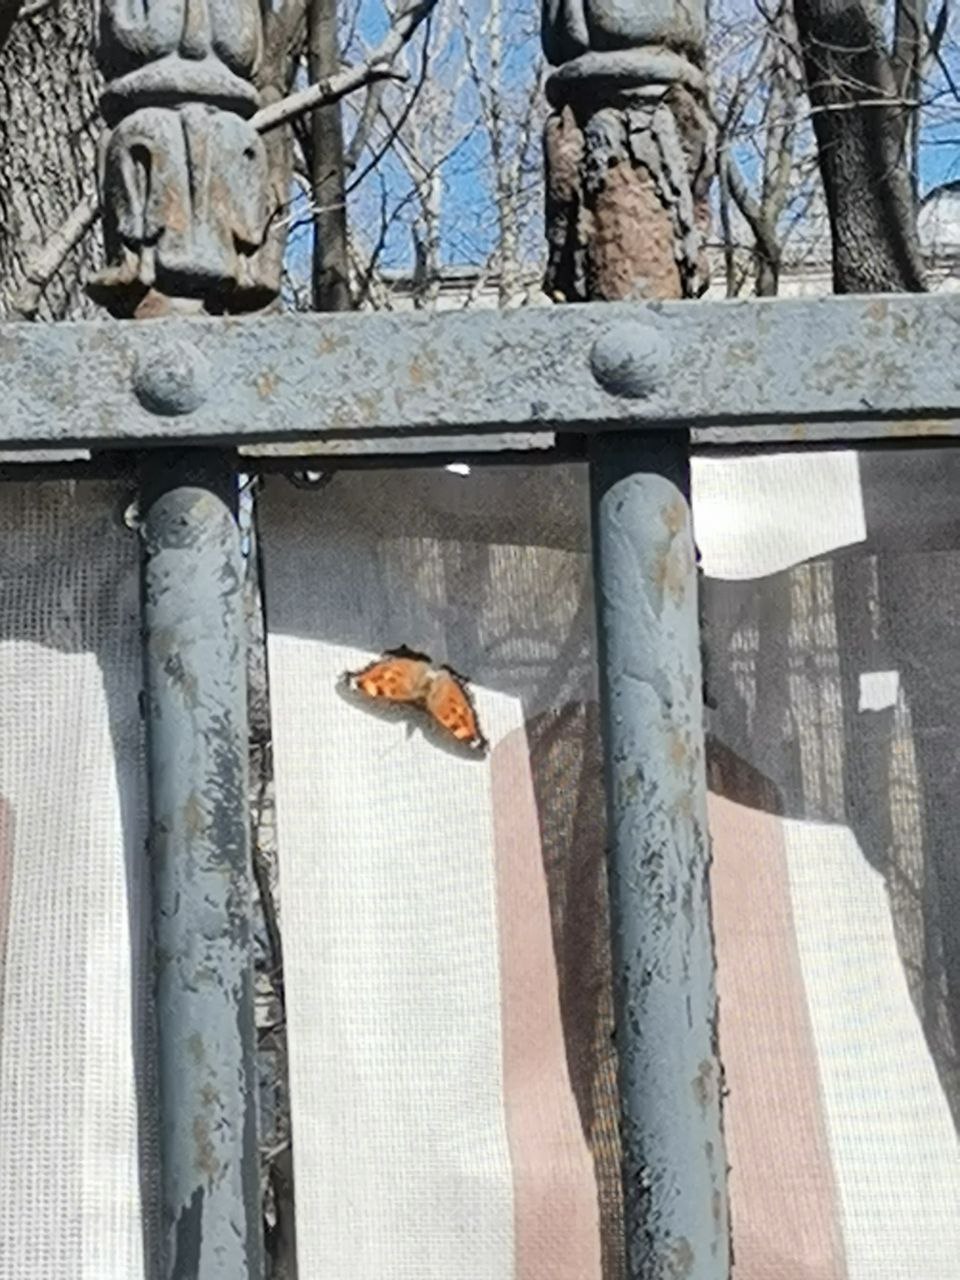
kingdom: Animalia
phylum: Arthropoda
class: Insecta
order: Lepidoptera
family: Nymphalidae
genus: Nymphalis
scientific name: Nymphalis xanthomelas
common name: Scarce tortoiseshell
